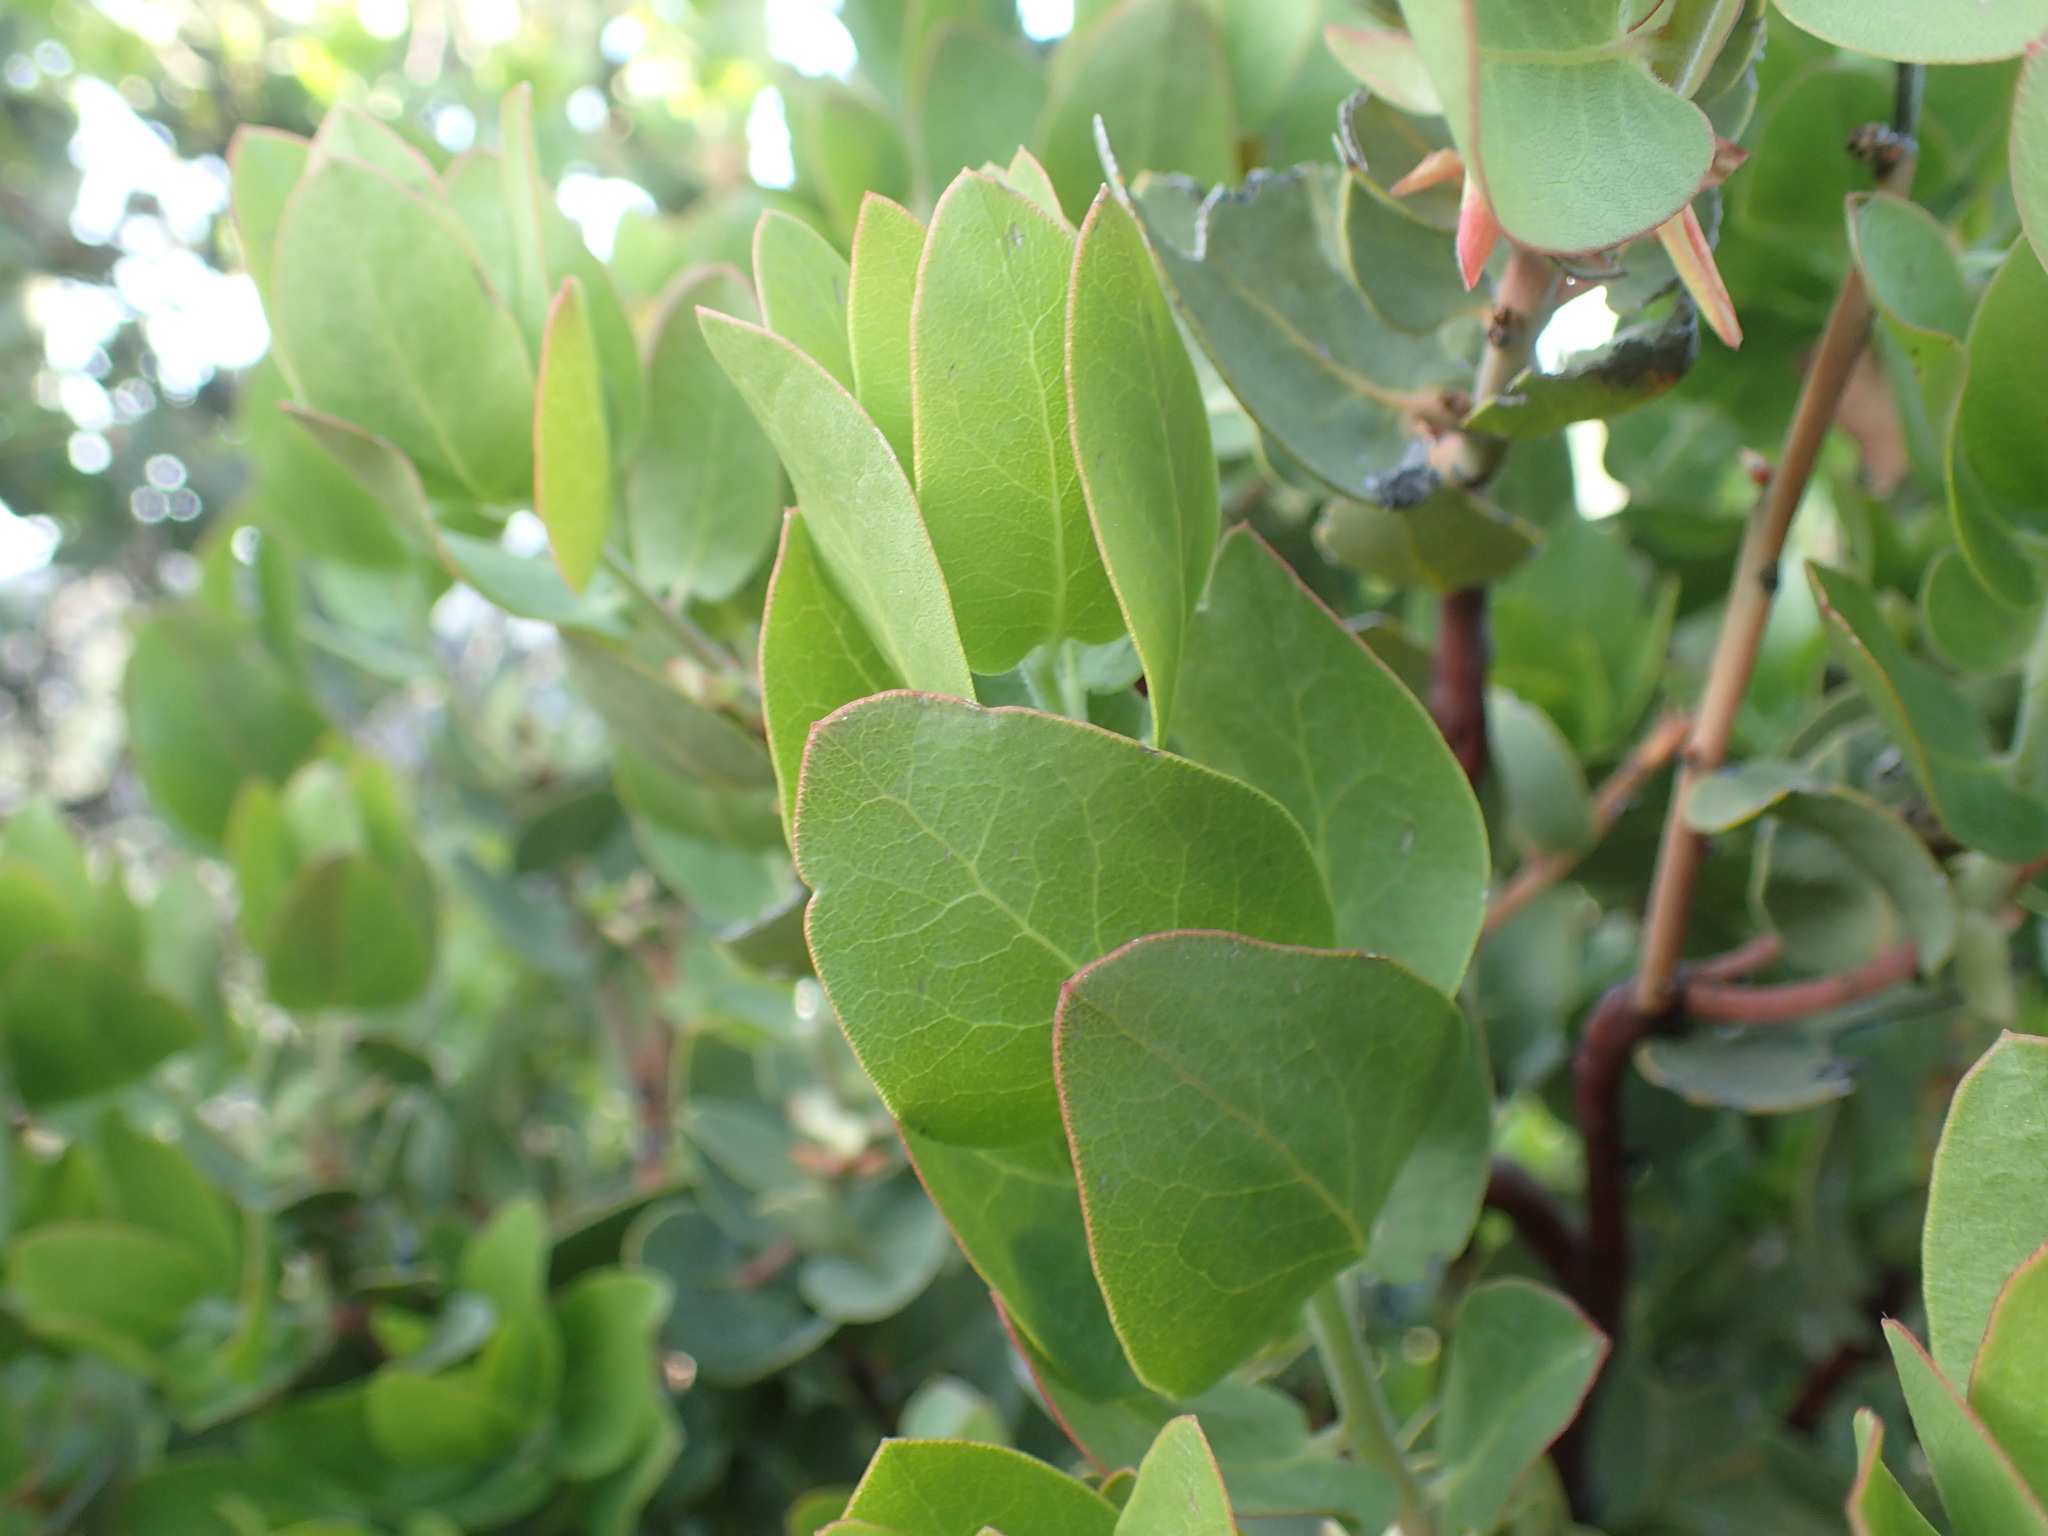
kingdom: Plantae
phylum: Tracheophyta
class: Magnoliopsida
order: Ericales
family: Ericaceae
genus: Arctostaphylos
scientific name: Arctostaphylos glauca
